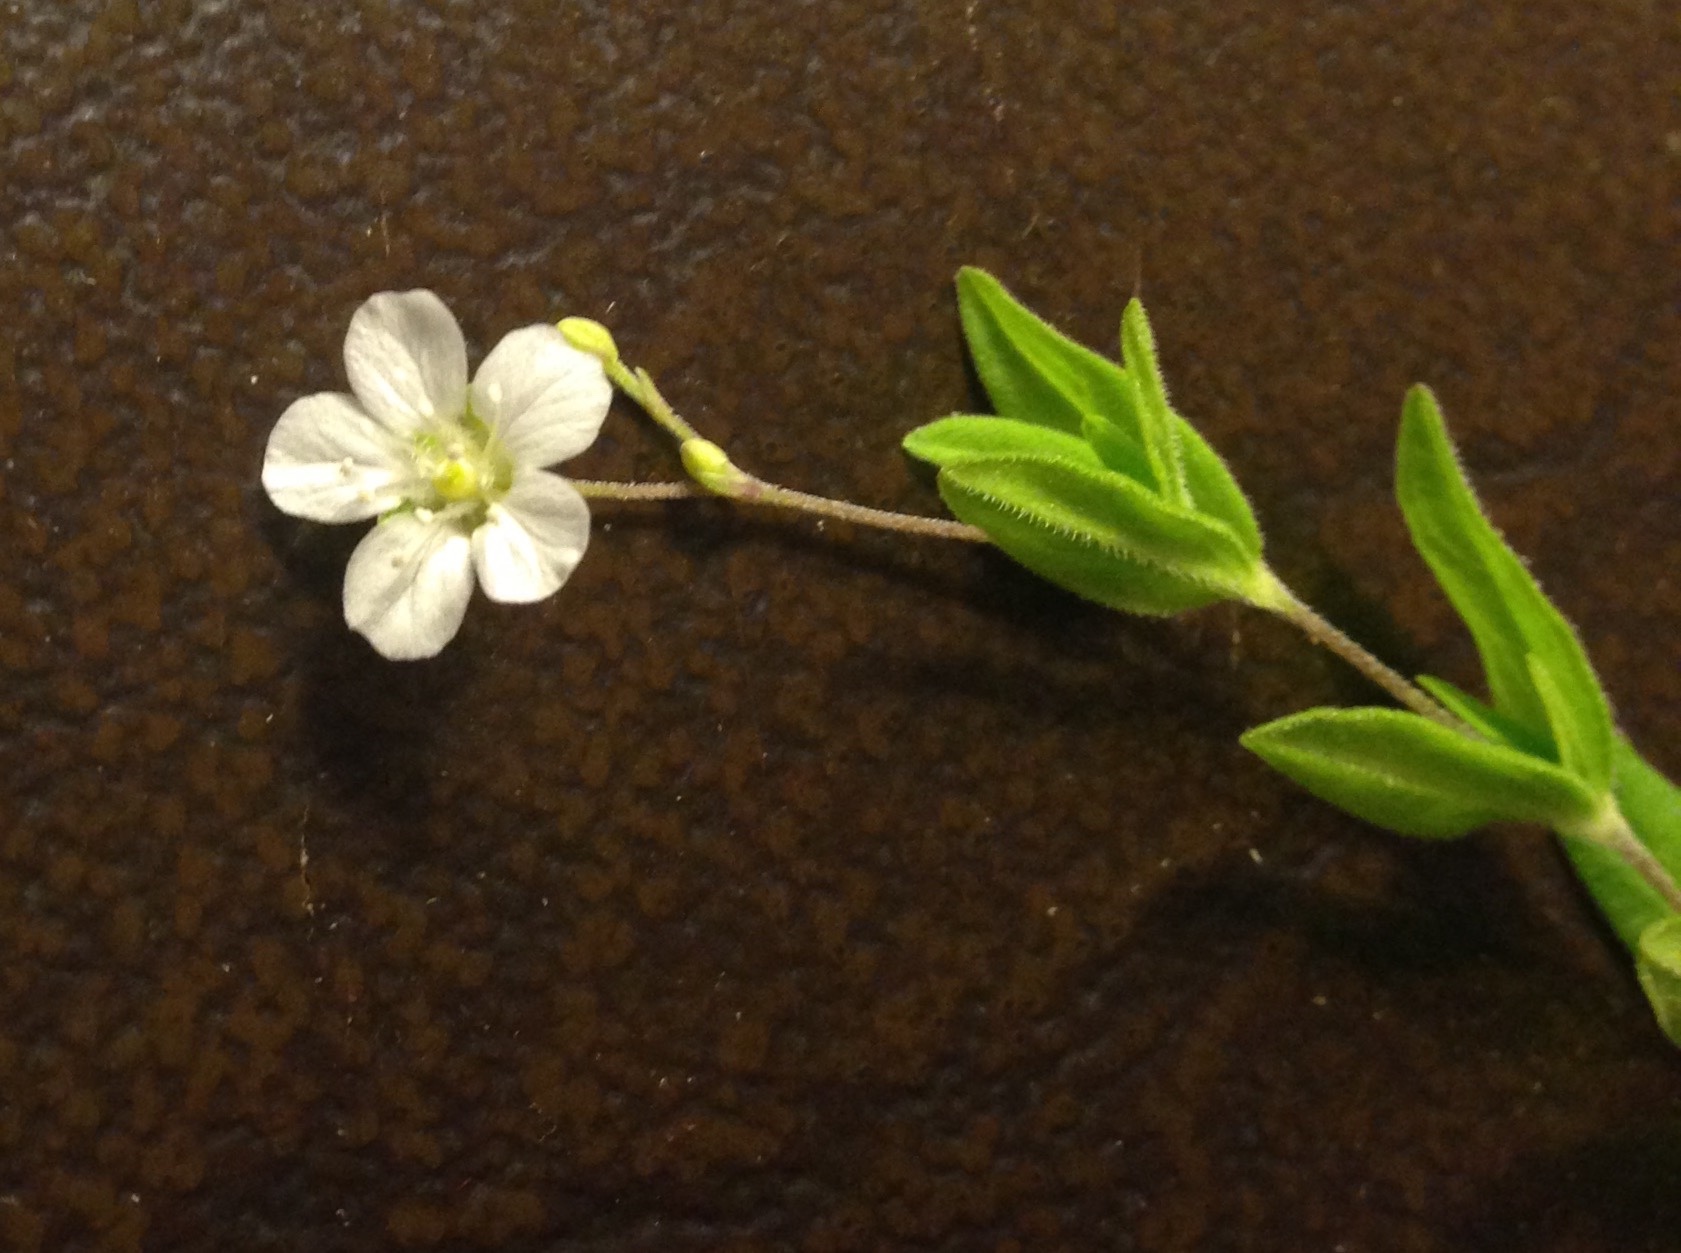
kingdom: Plantae
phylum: Tracheophyta
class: Magnoliopsida
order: Caryophyllales
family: Caryophyllaceae
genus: Moehringia
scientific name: Moehringia lateriflora
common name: Blunt-leaved sandwort
